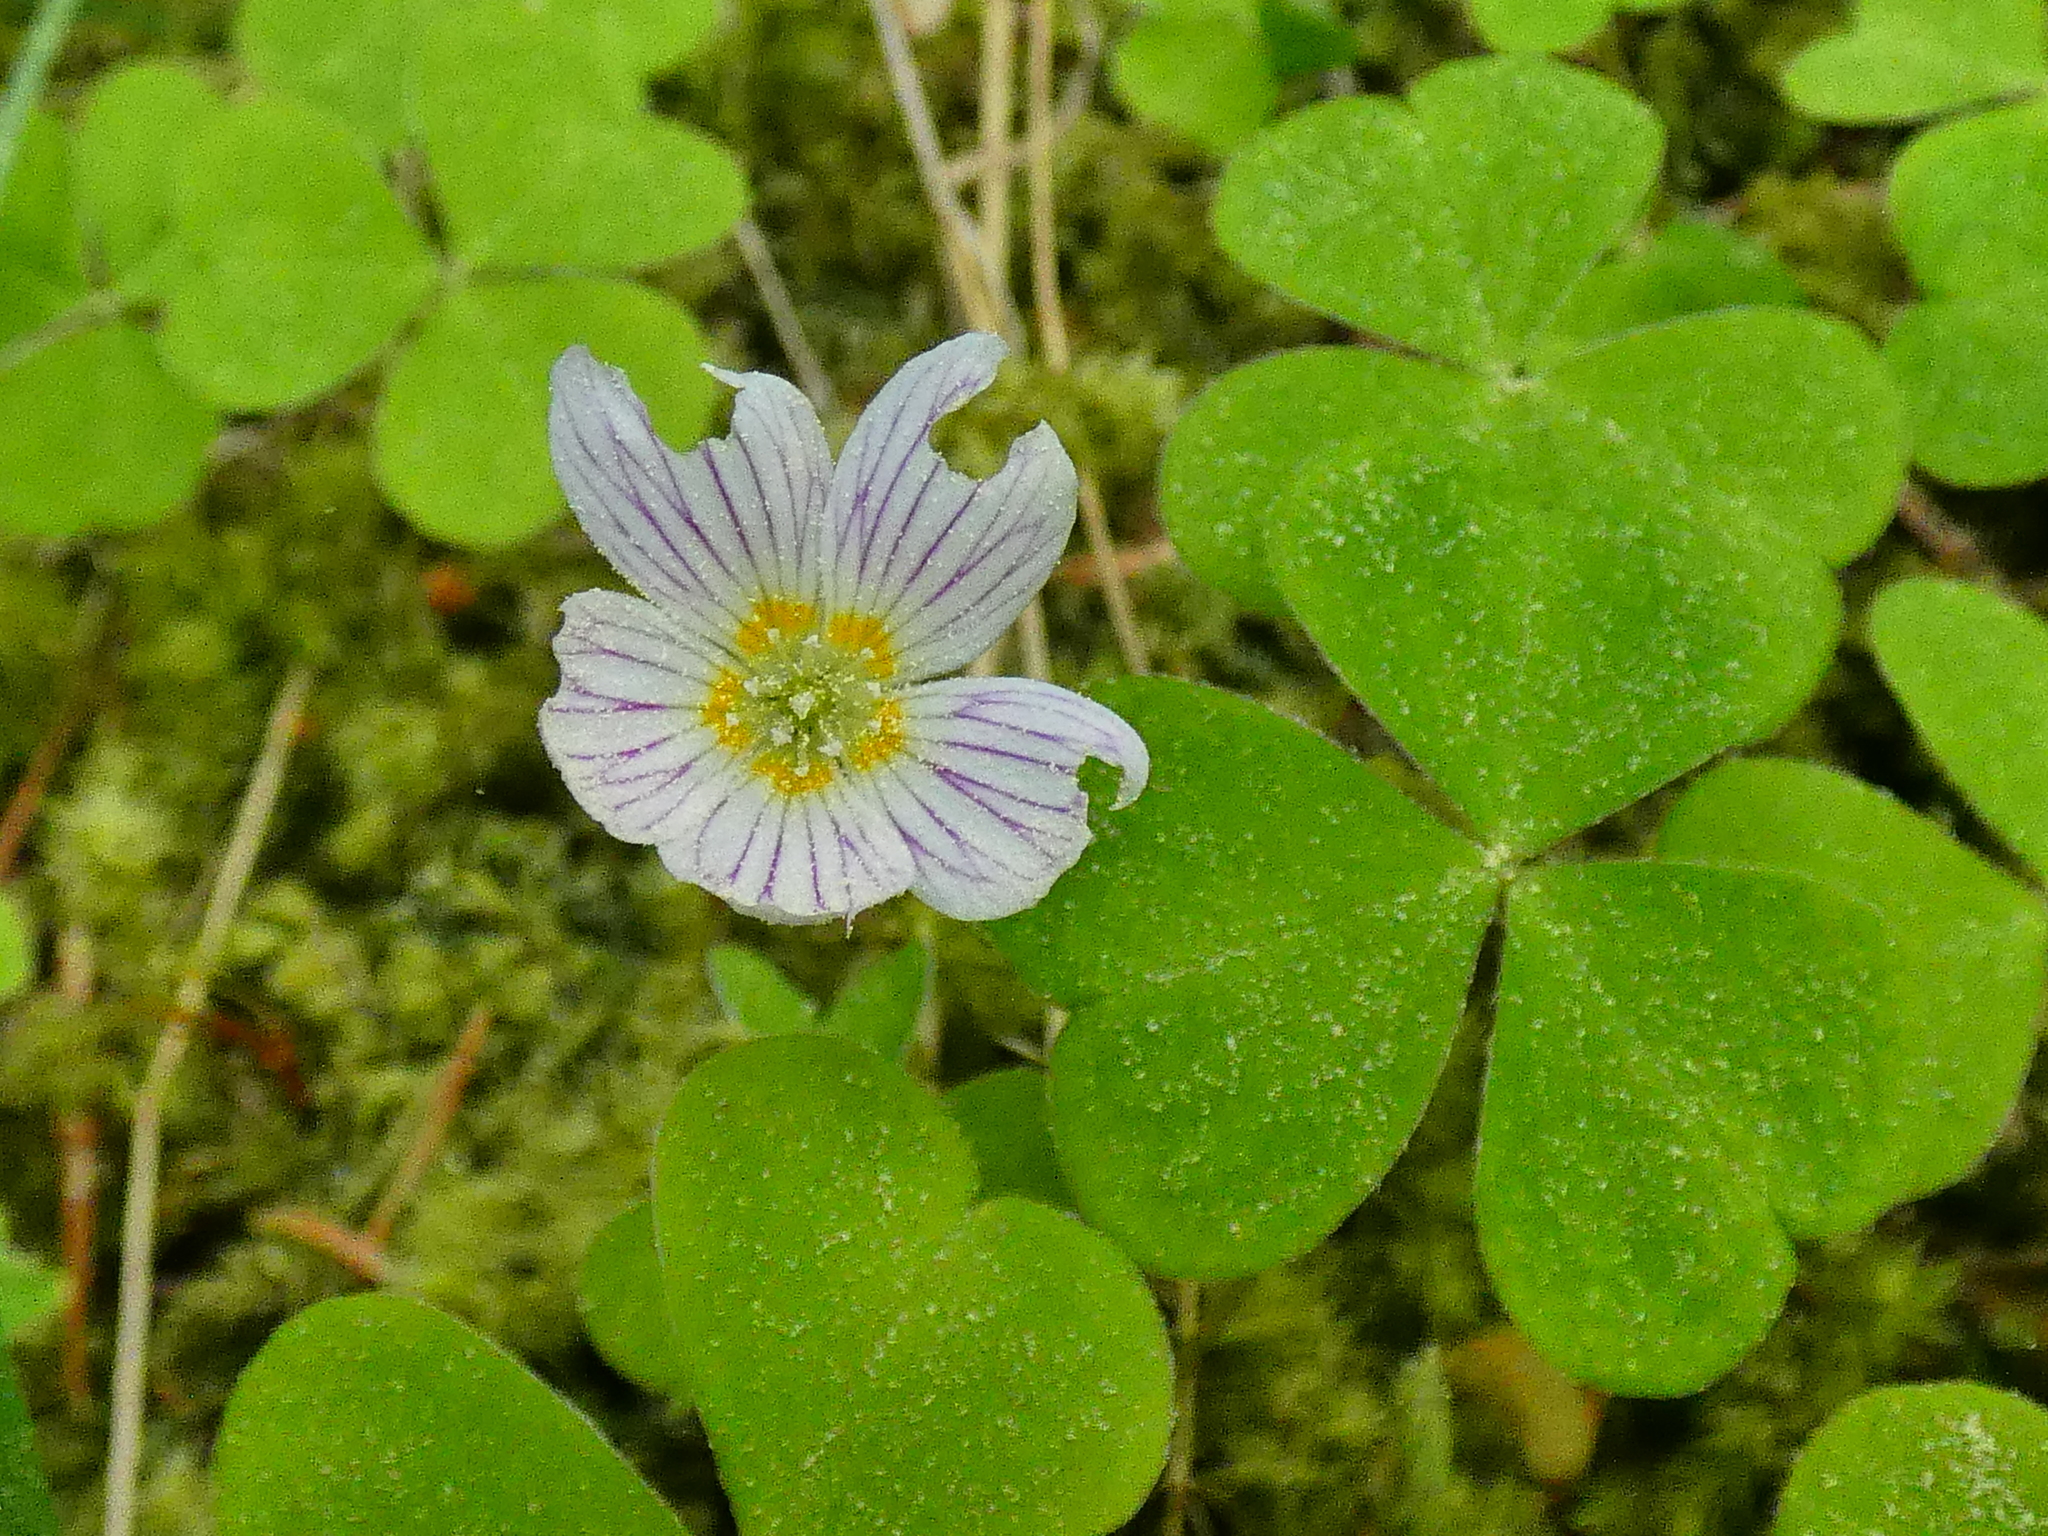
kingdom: Plantae
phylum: Tracheophyta
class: Magnoliopsida
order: Oxalidales
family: Oxalidaceae
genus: Oxalis
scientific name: Oxalis acetosella
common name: Wood-sorrel
